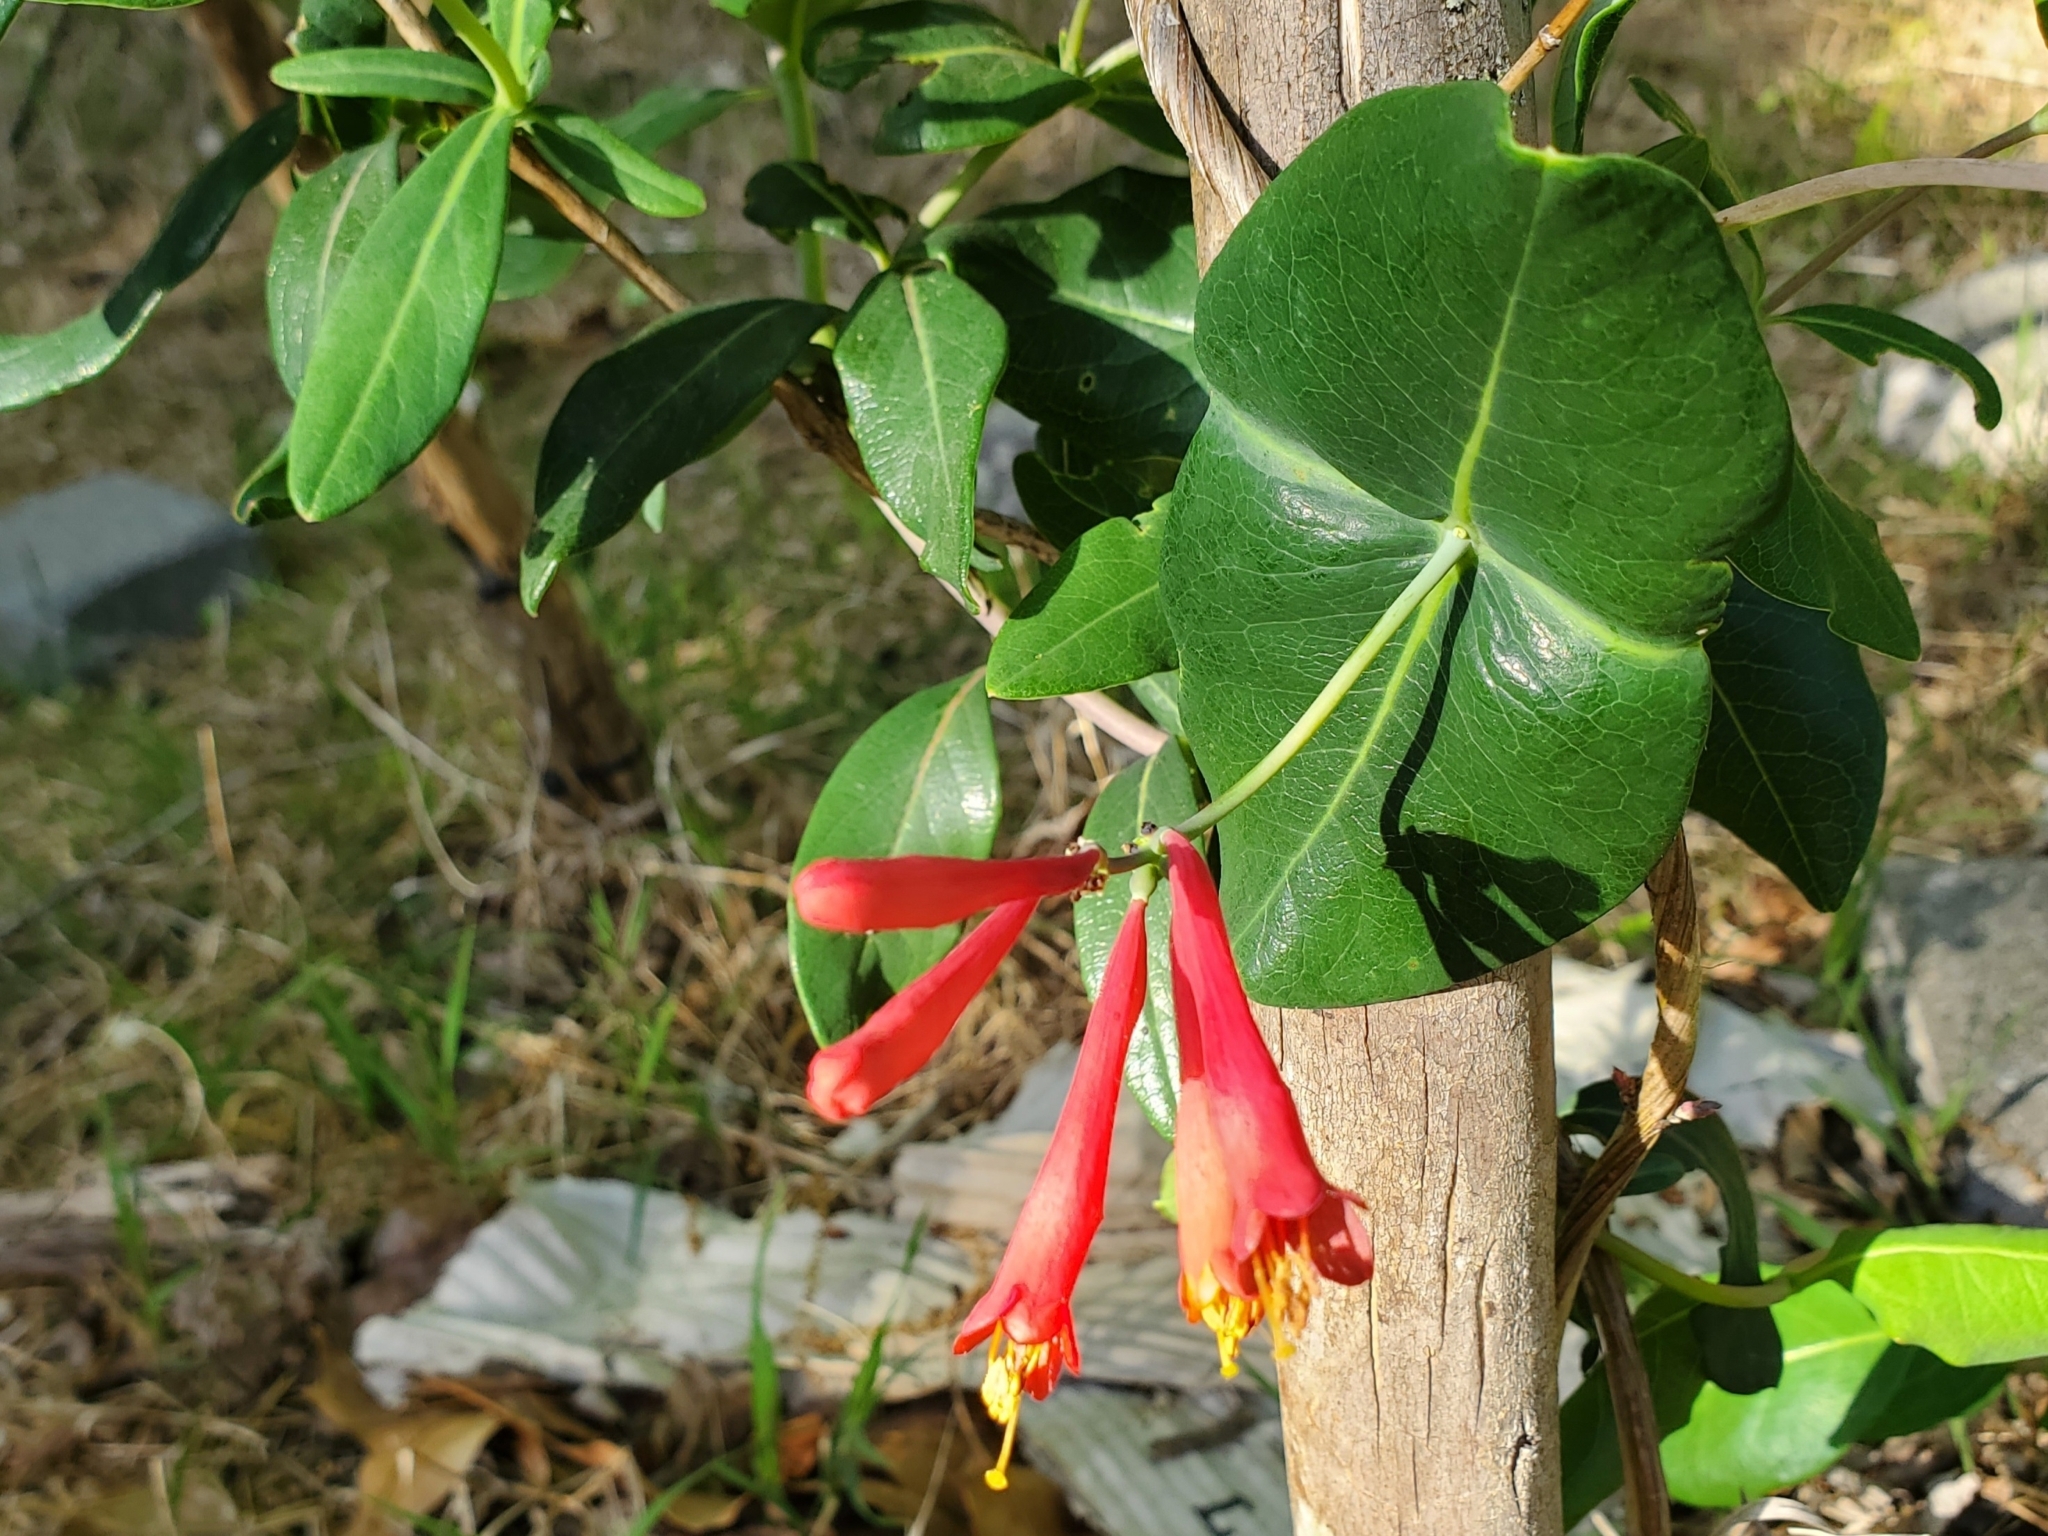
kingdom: Plantae
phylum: Tracheophyta
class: Magnoliopsida
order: Dipsacales
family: Caprifoliaceae
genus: Lonicera
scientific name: Lonicera sempervirens
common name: Coral honeysuckle
